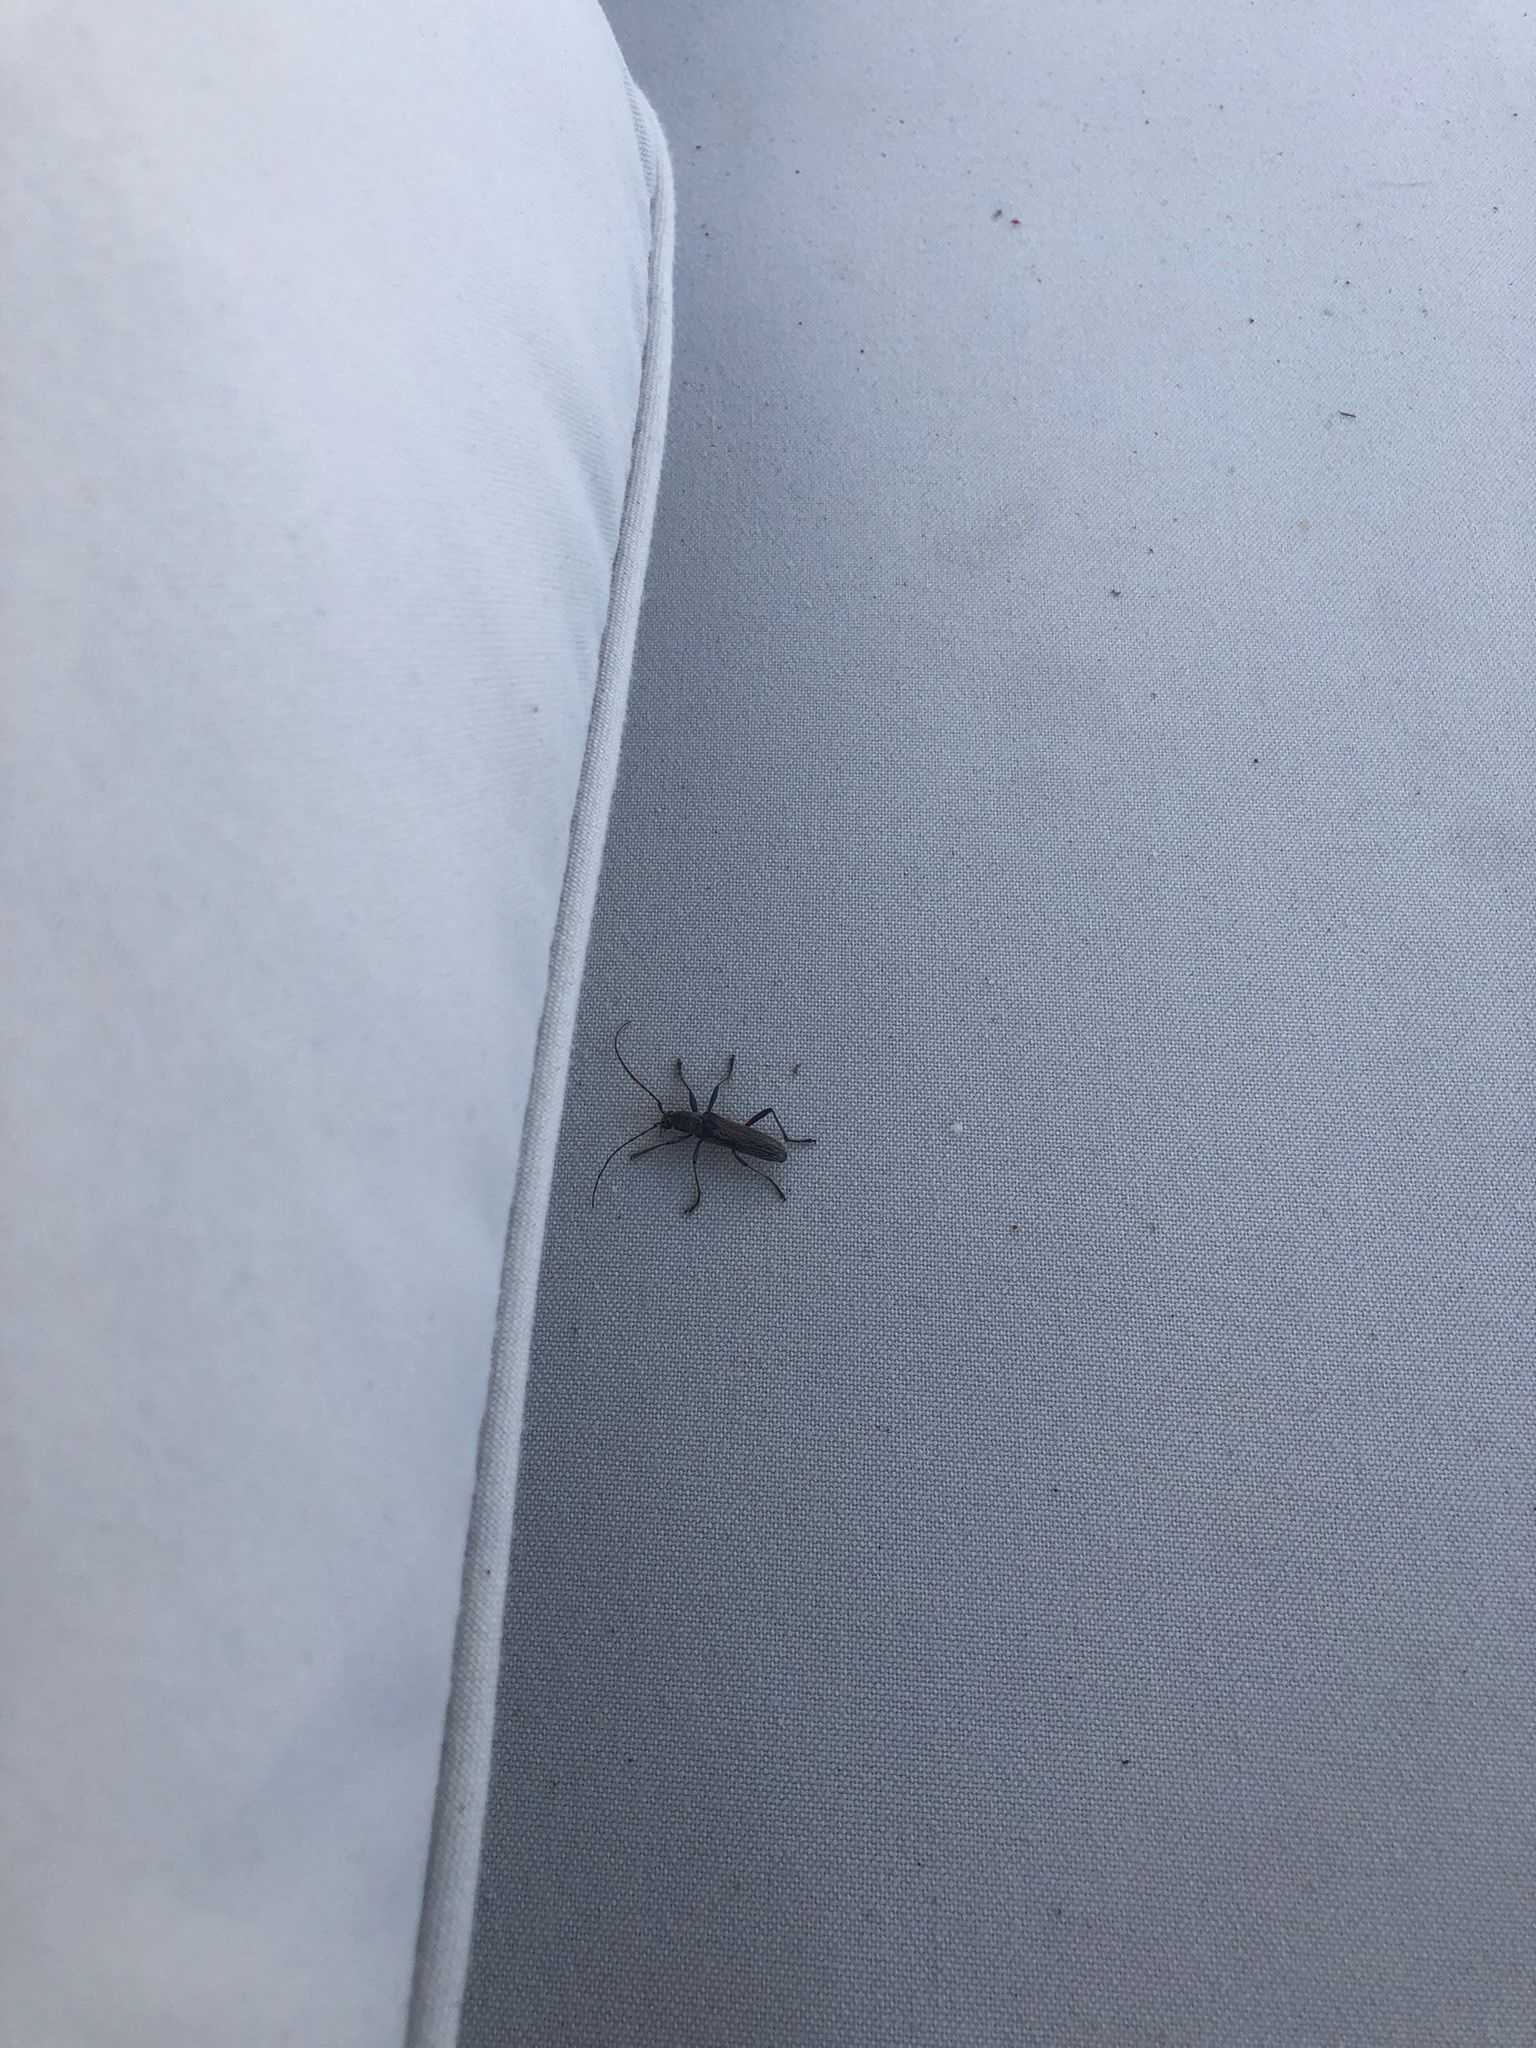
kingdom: Animalia
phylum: Arthropoda
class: Insecta
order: Coleoptera
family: Cerambycidae
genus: Oemona
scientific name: Oemona hirta
